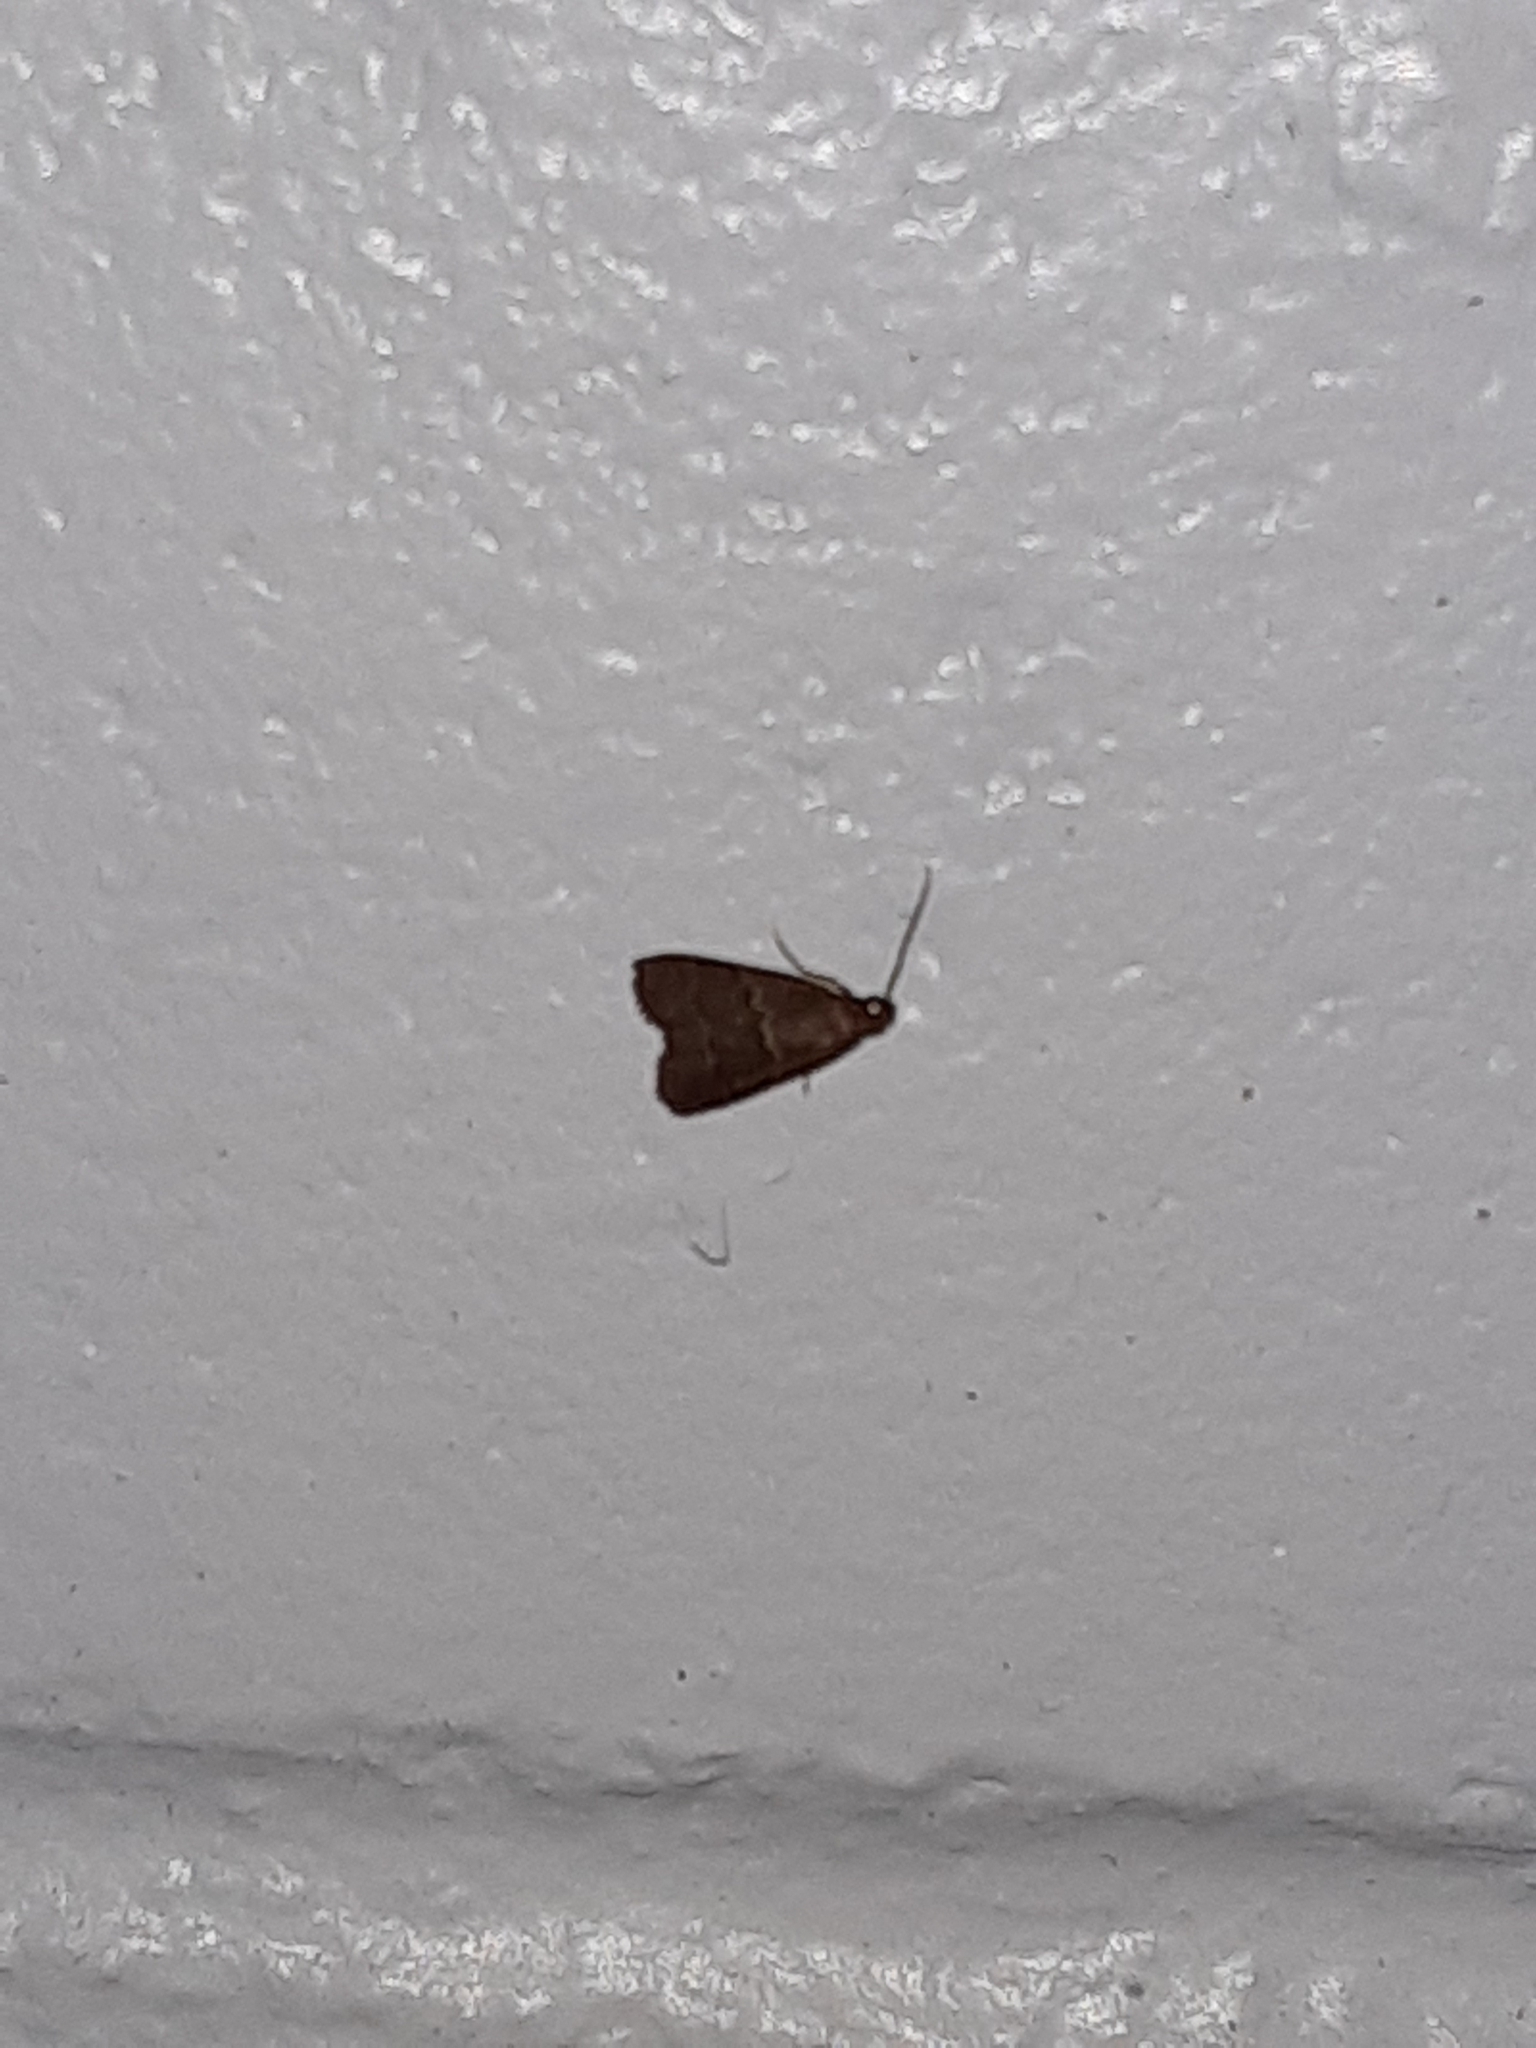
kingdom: Animalia
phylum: Arthropoda
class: Insecta
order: Lepidoptera
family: Pyralidae
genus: Arta
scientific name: Arta
